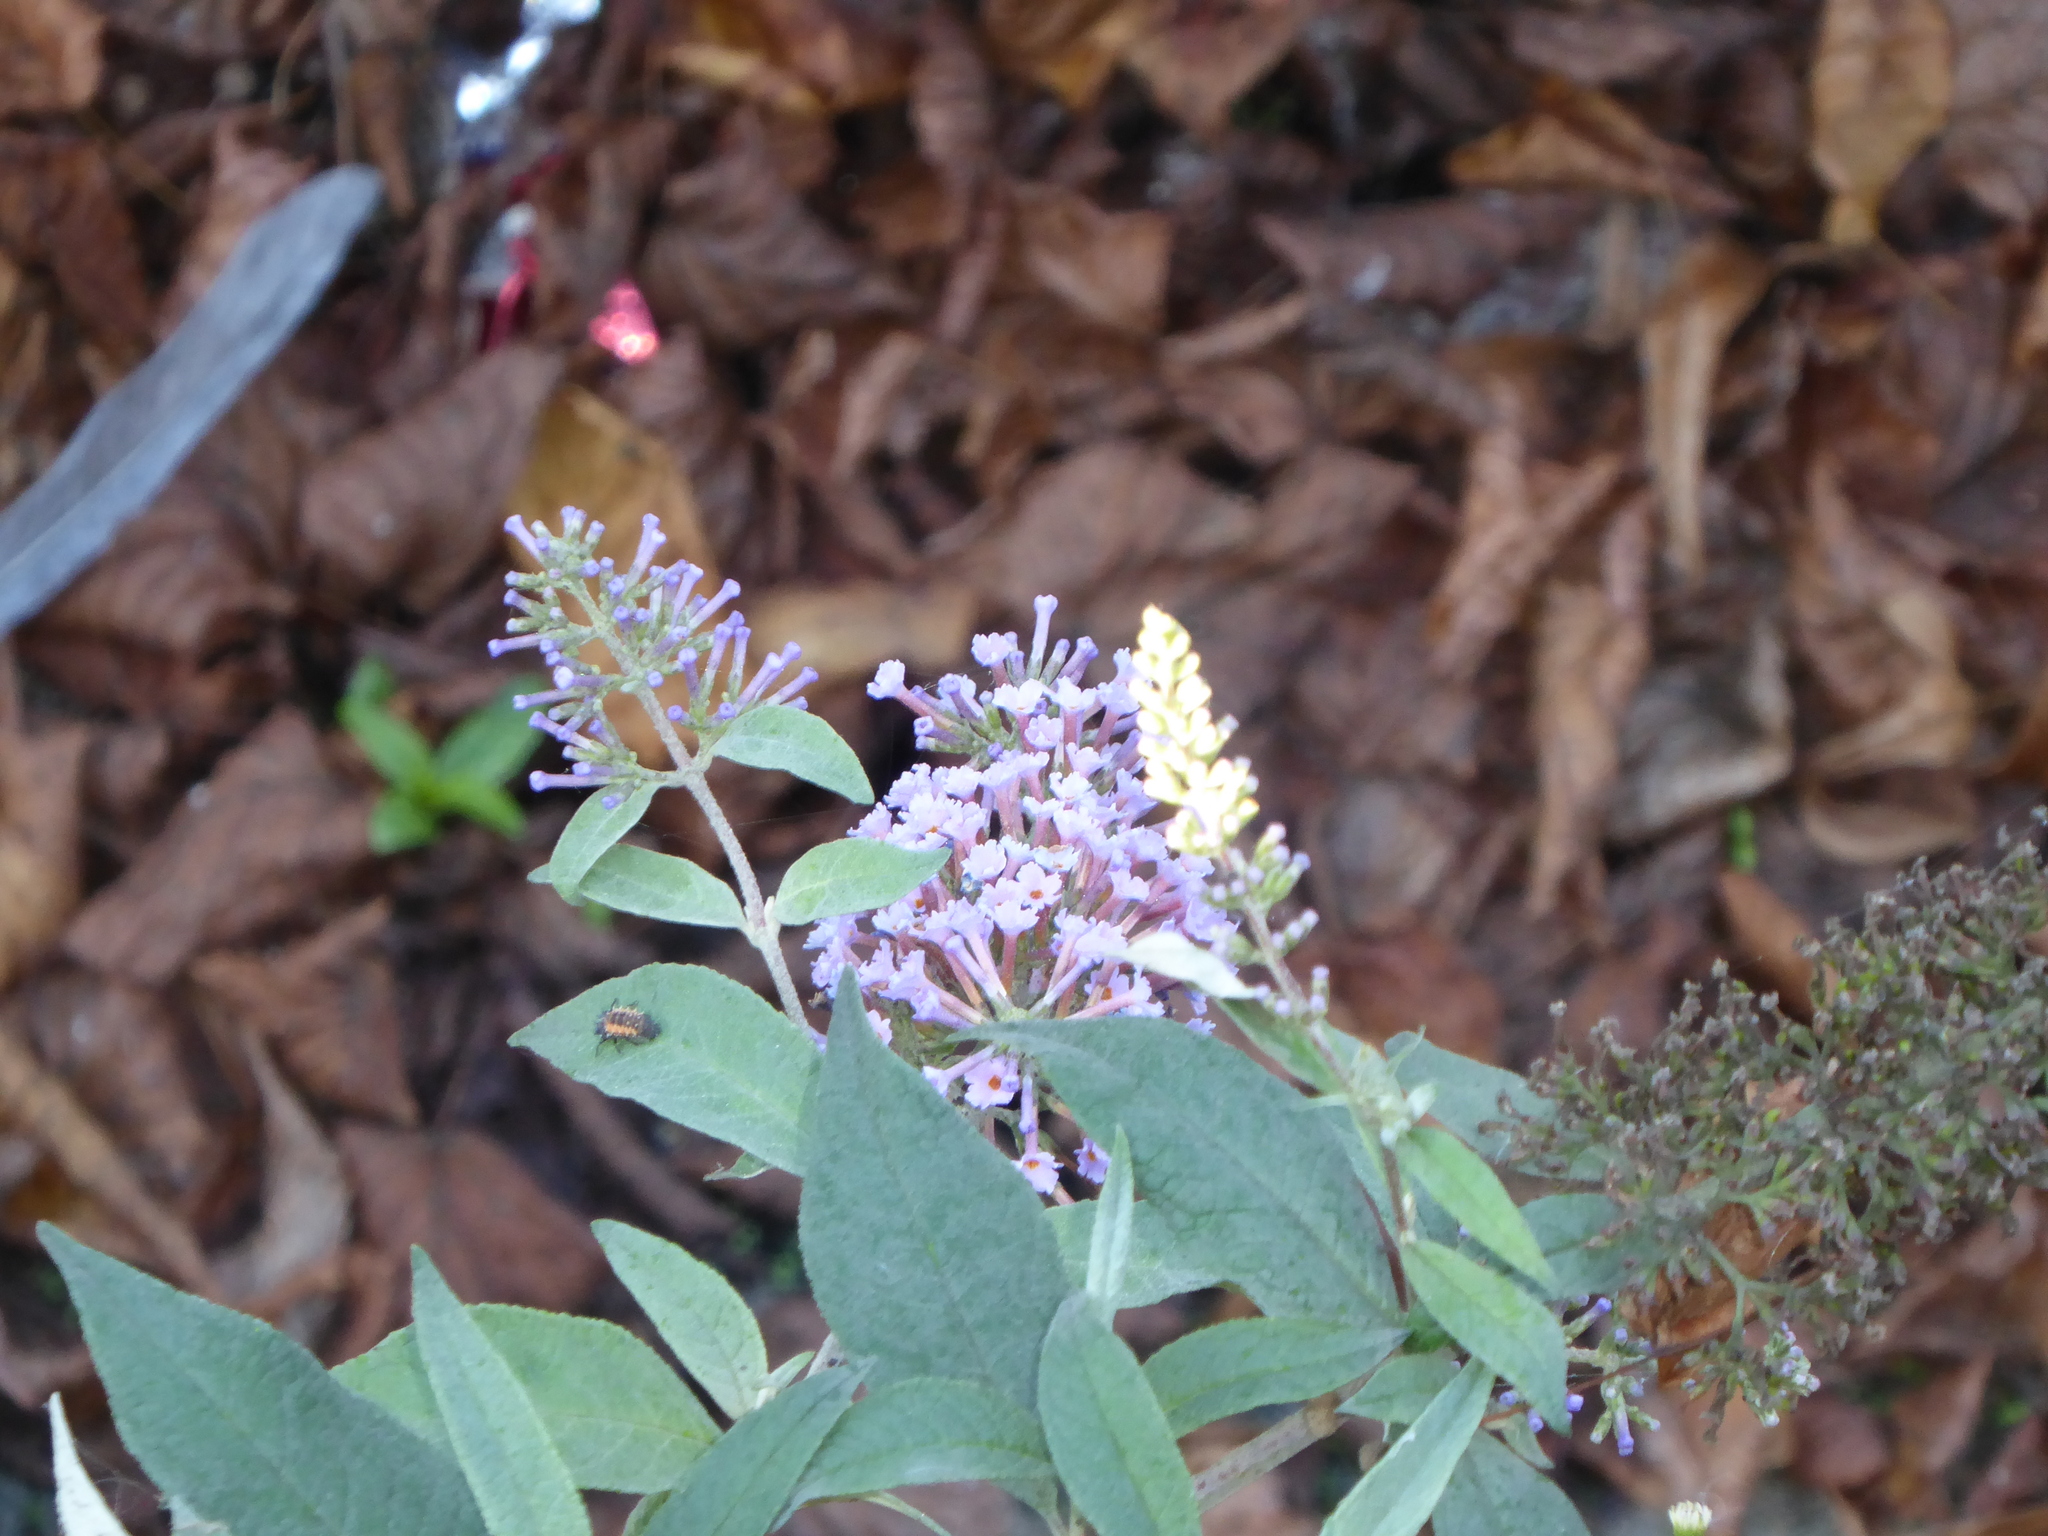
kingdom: Plantae
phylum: Tracheophyta
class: Magnoliopsida
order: Lamiales
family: Scrophulariaceae
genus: Buddleja
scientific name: Buddleja davidii
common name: Butterfly-bush
